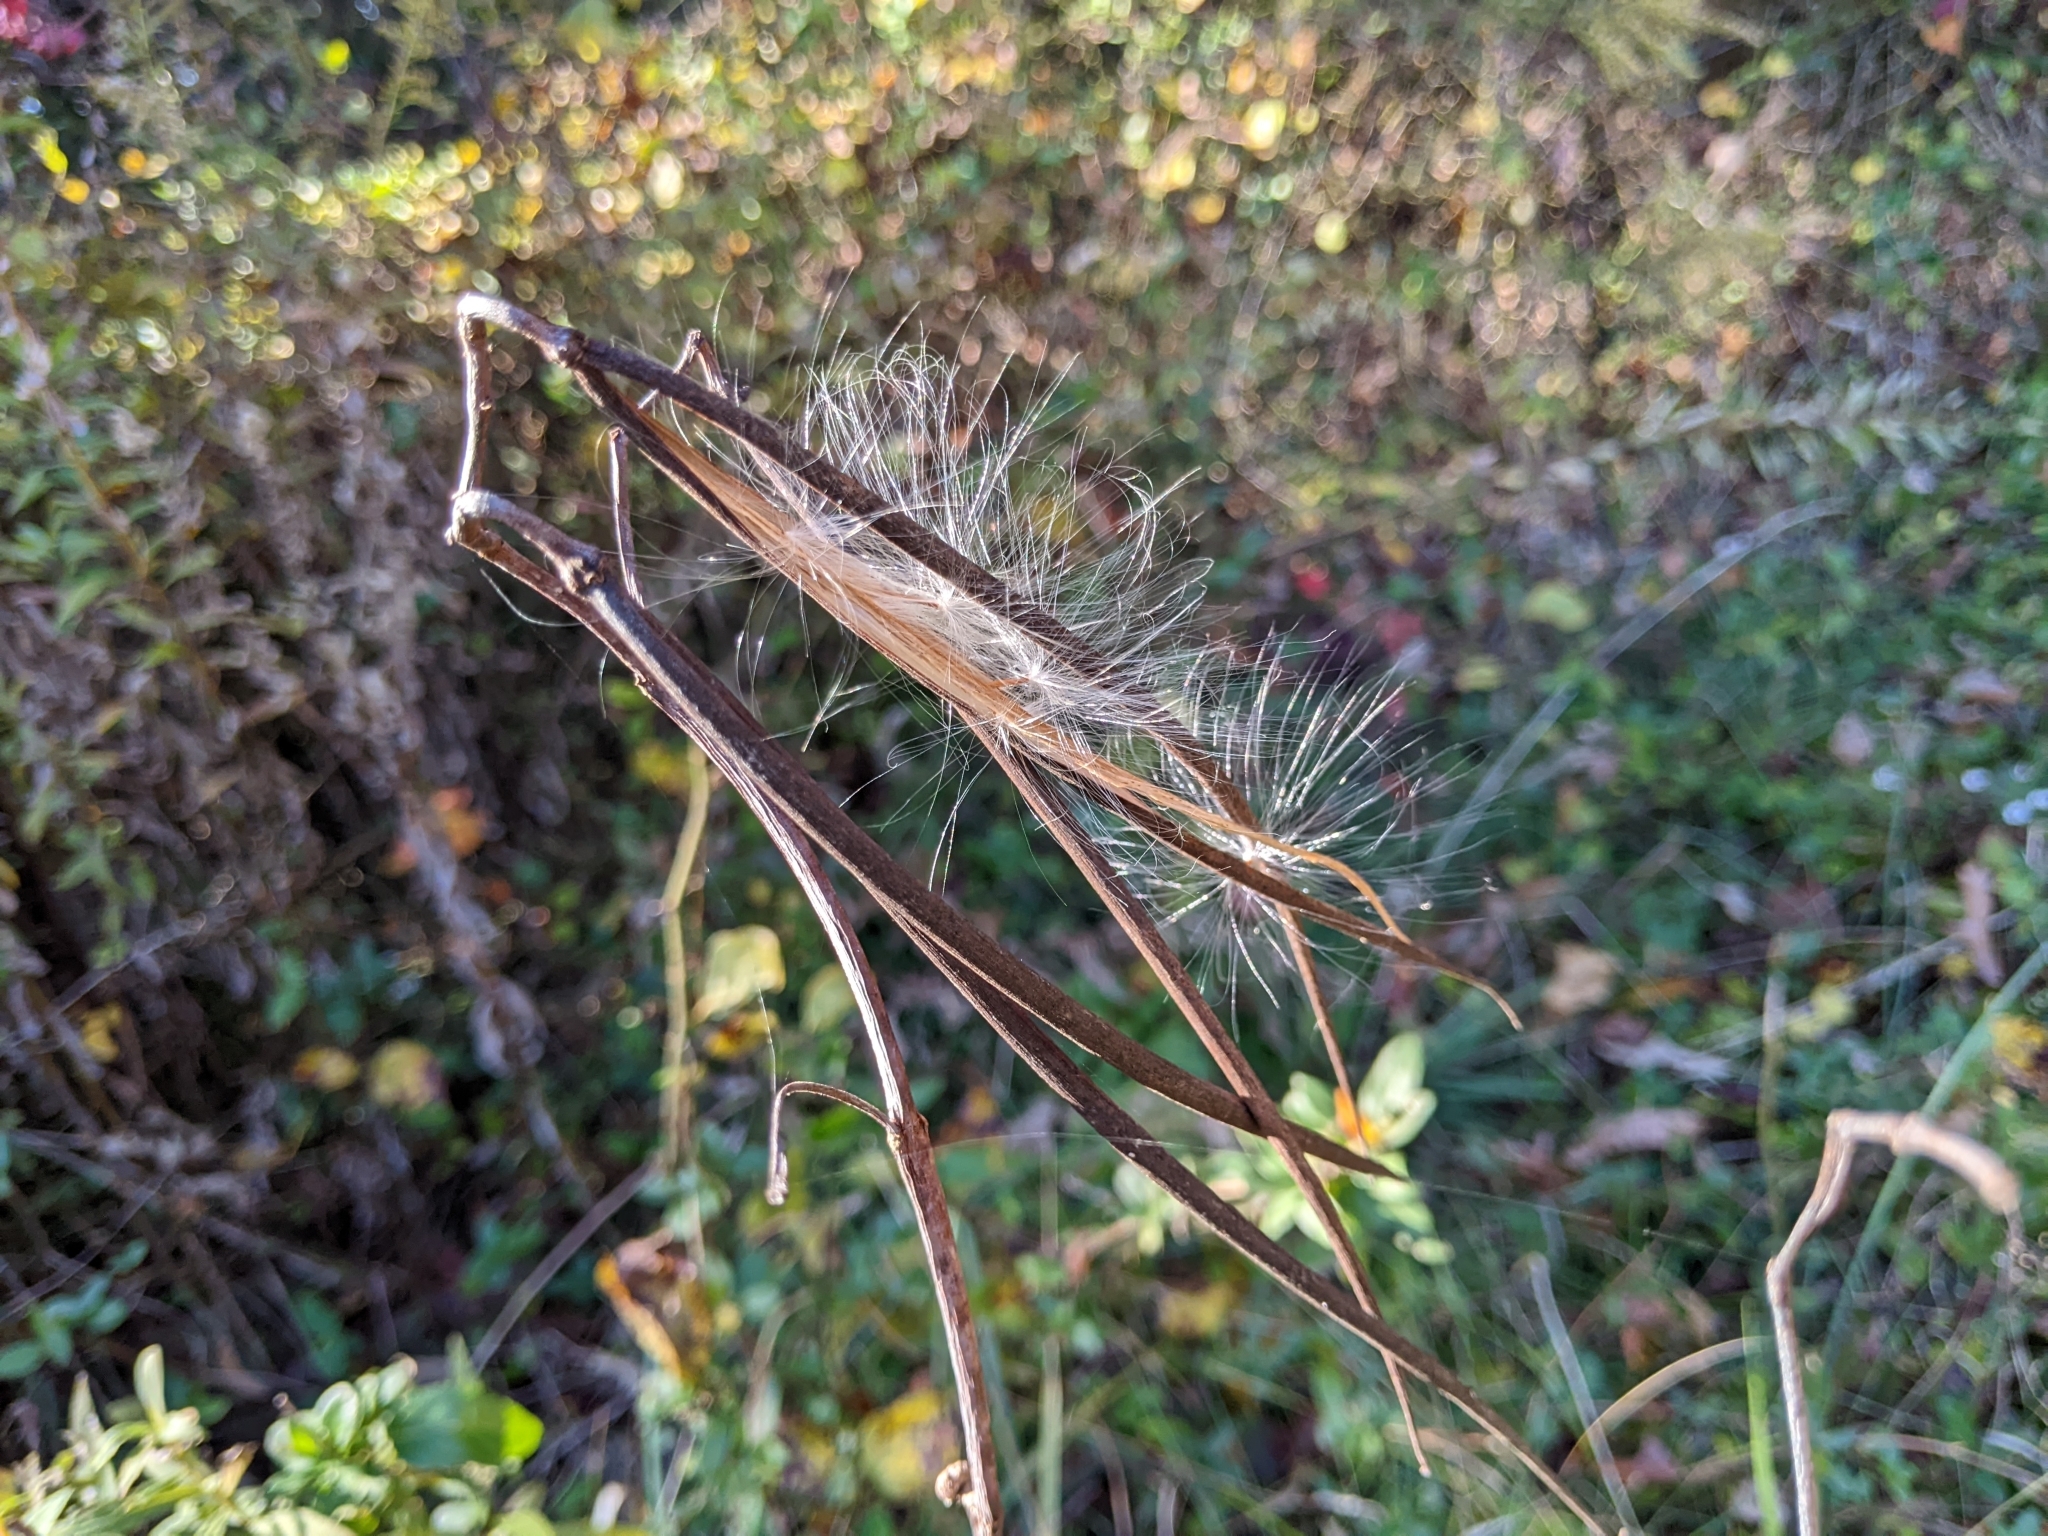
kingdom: Plantae
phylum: Tracheophyta
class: Magnoliopsida
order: Gentianales
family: Apocynaceae
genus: Apocynum
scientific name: Apocynum cannabinum
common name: Hemp dogbane
